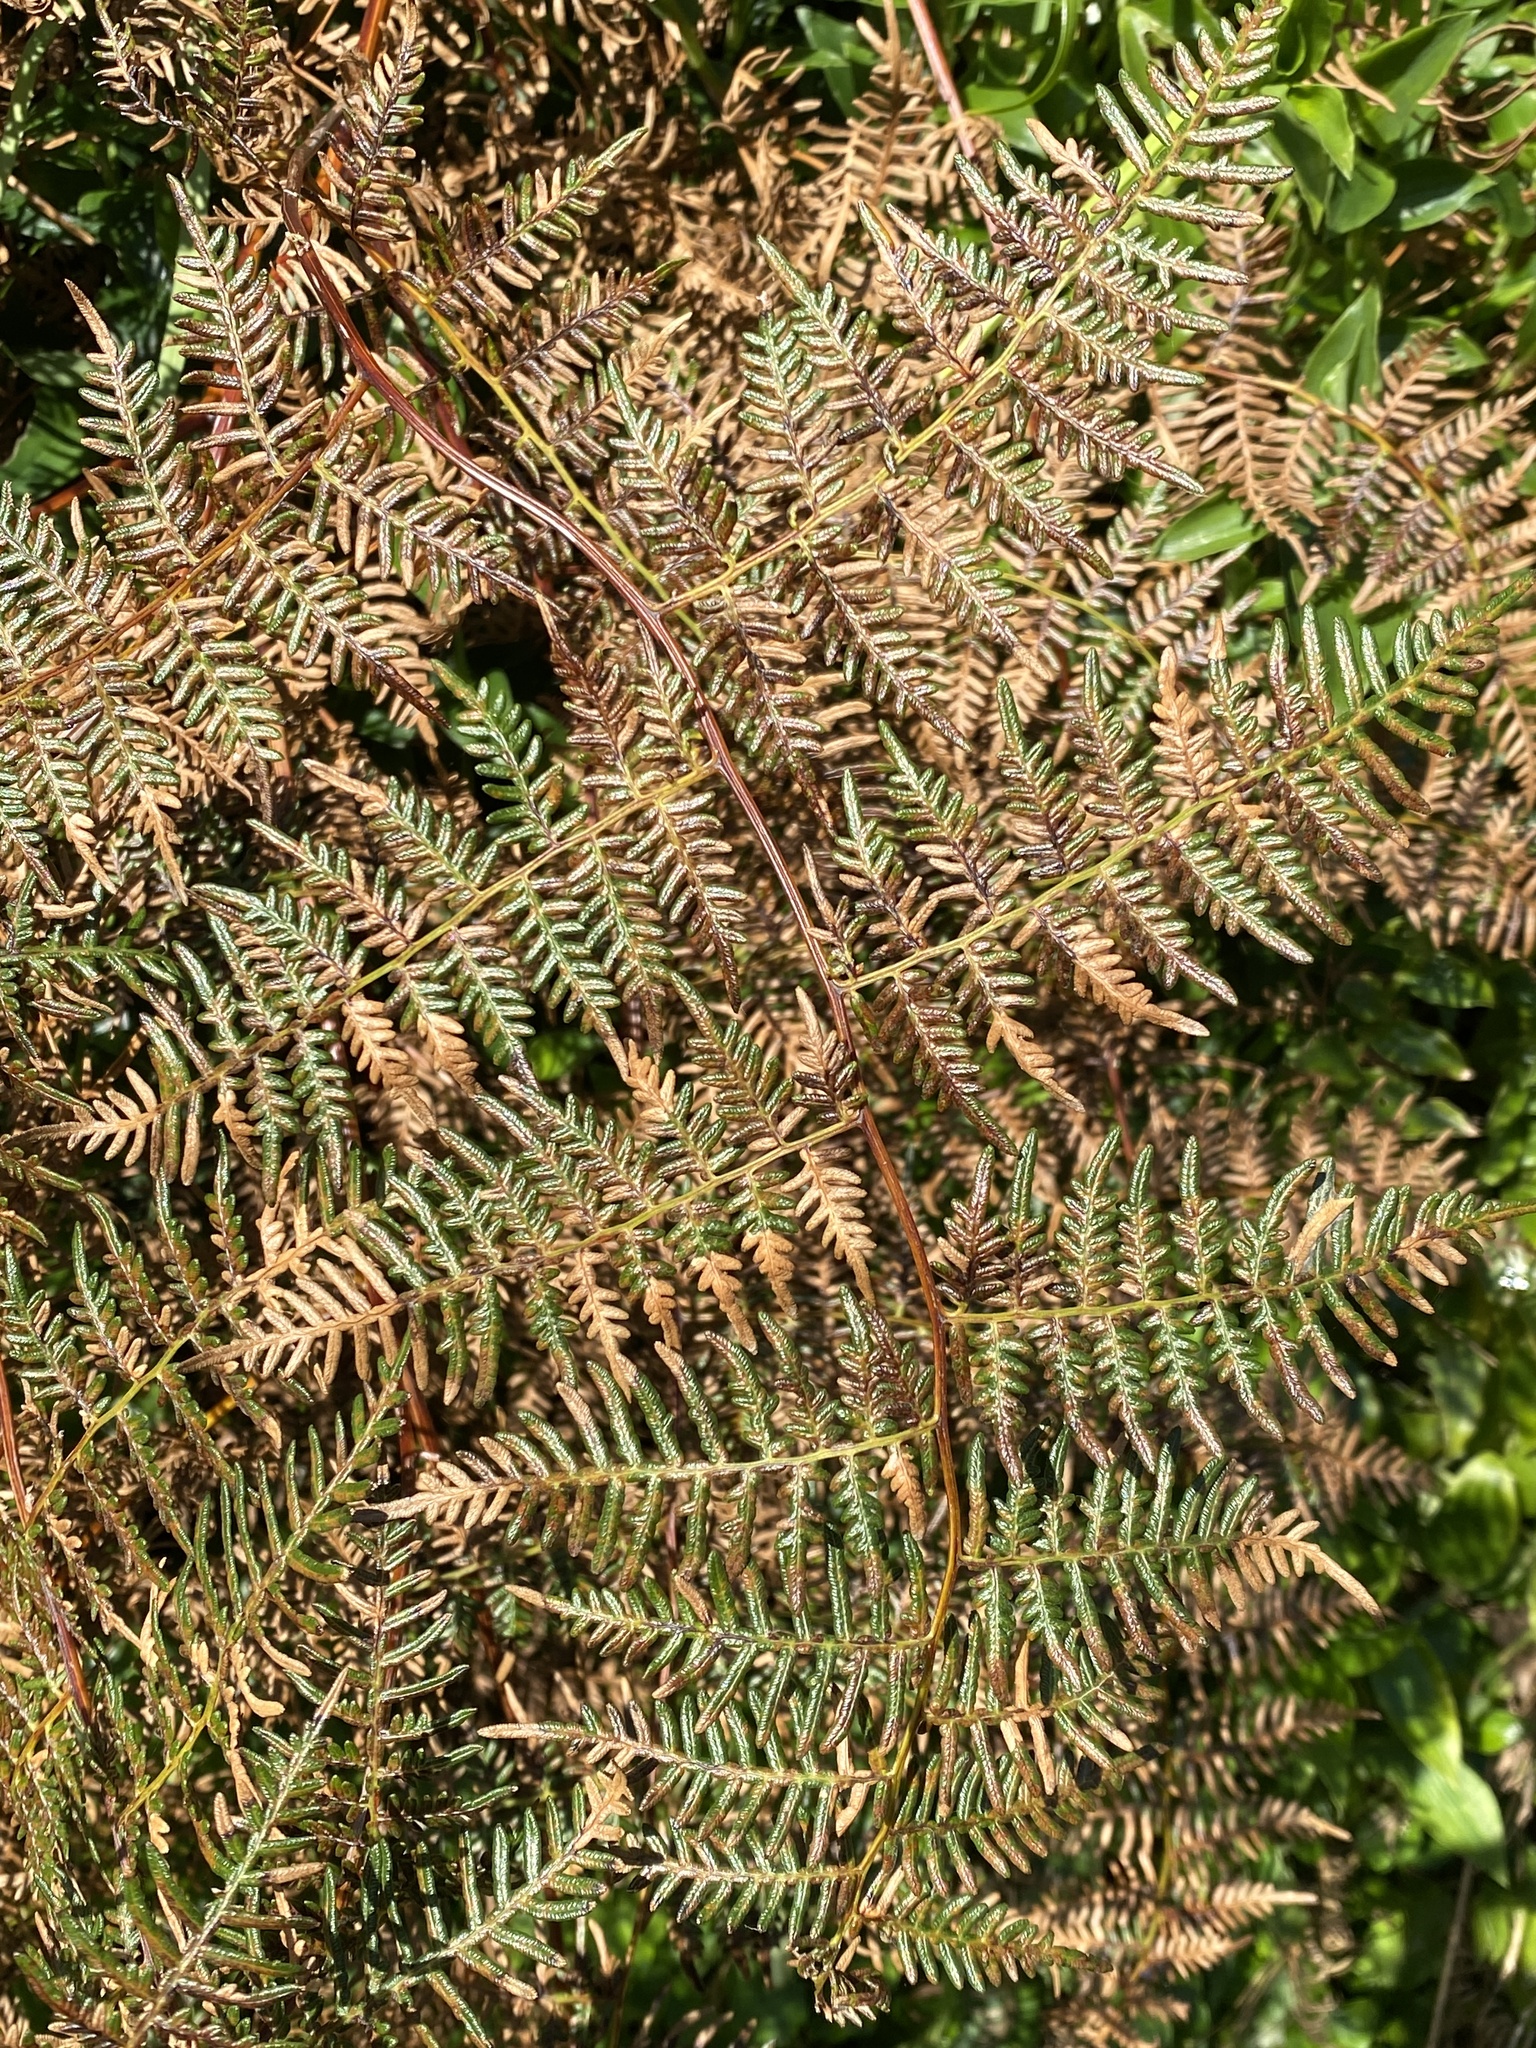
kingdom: Plantae
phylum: Tracheophyta
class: Polypodiopsida
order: Polypodiales
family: Dennstaedtiaceae
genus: Pteridium
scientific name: Pteridium esculentum
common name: Bracken fern
